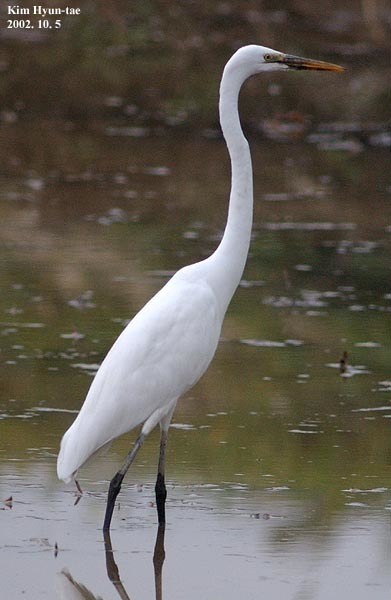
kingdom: Animalia
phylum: Chordata
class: Aves
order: Pelecaniformes
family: Ardeidae
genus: Ardea
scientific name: Ardea alba
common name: Great egret
